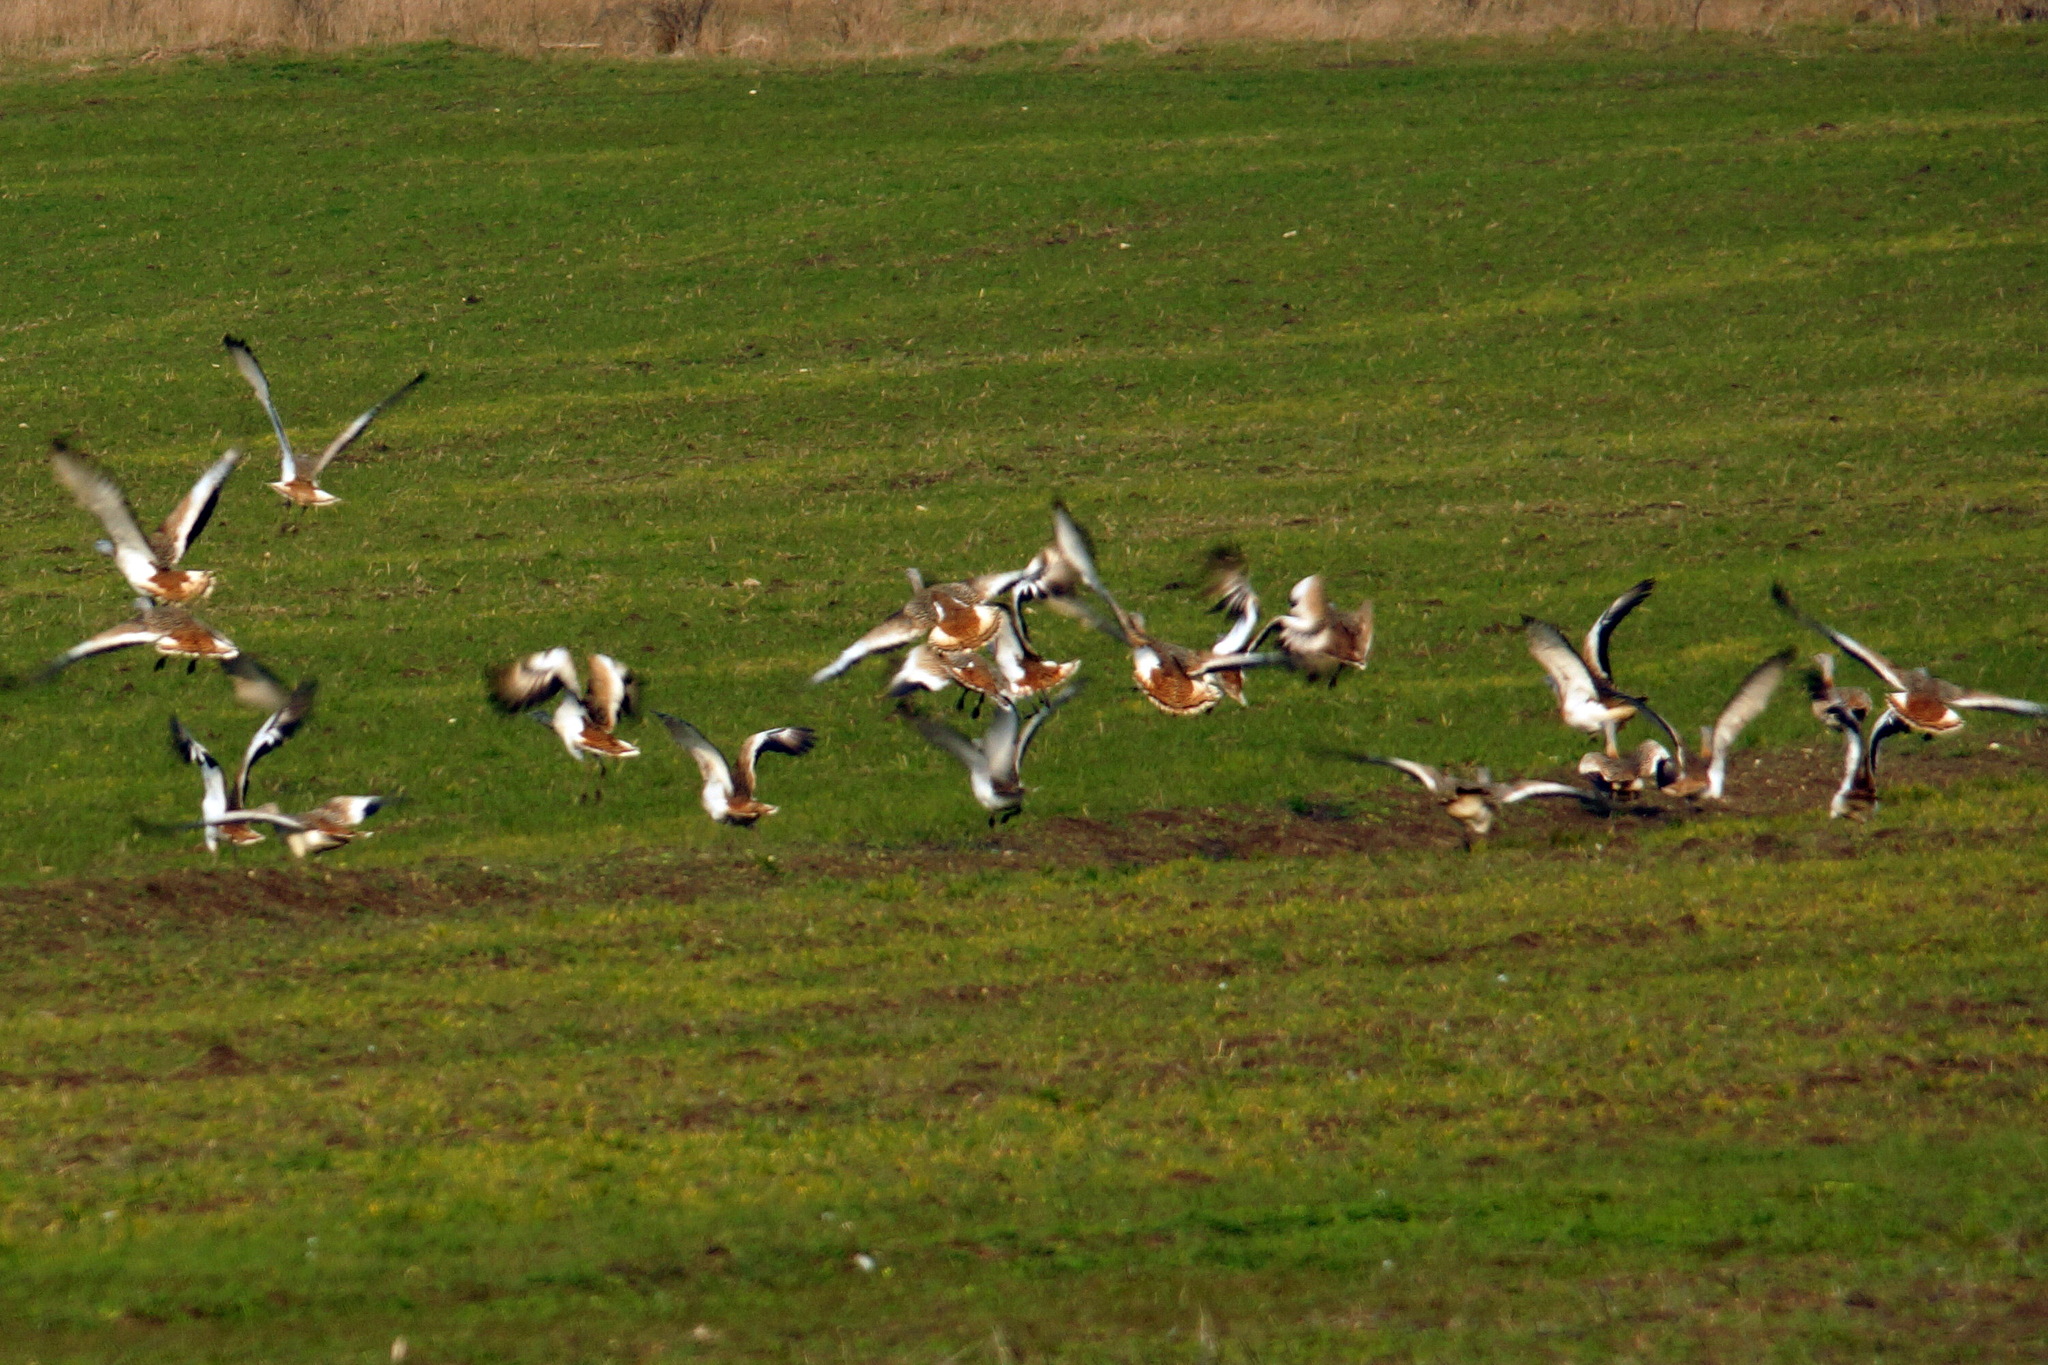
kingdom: Animalia
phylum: Chordata
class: Aves
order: Otidiformes
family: Otididae
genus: Otis
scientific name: Otis tarda
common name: Great bustard
